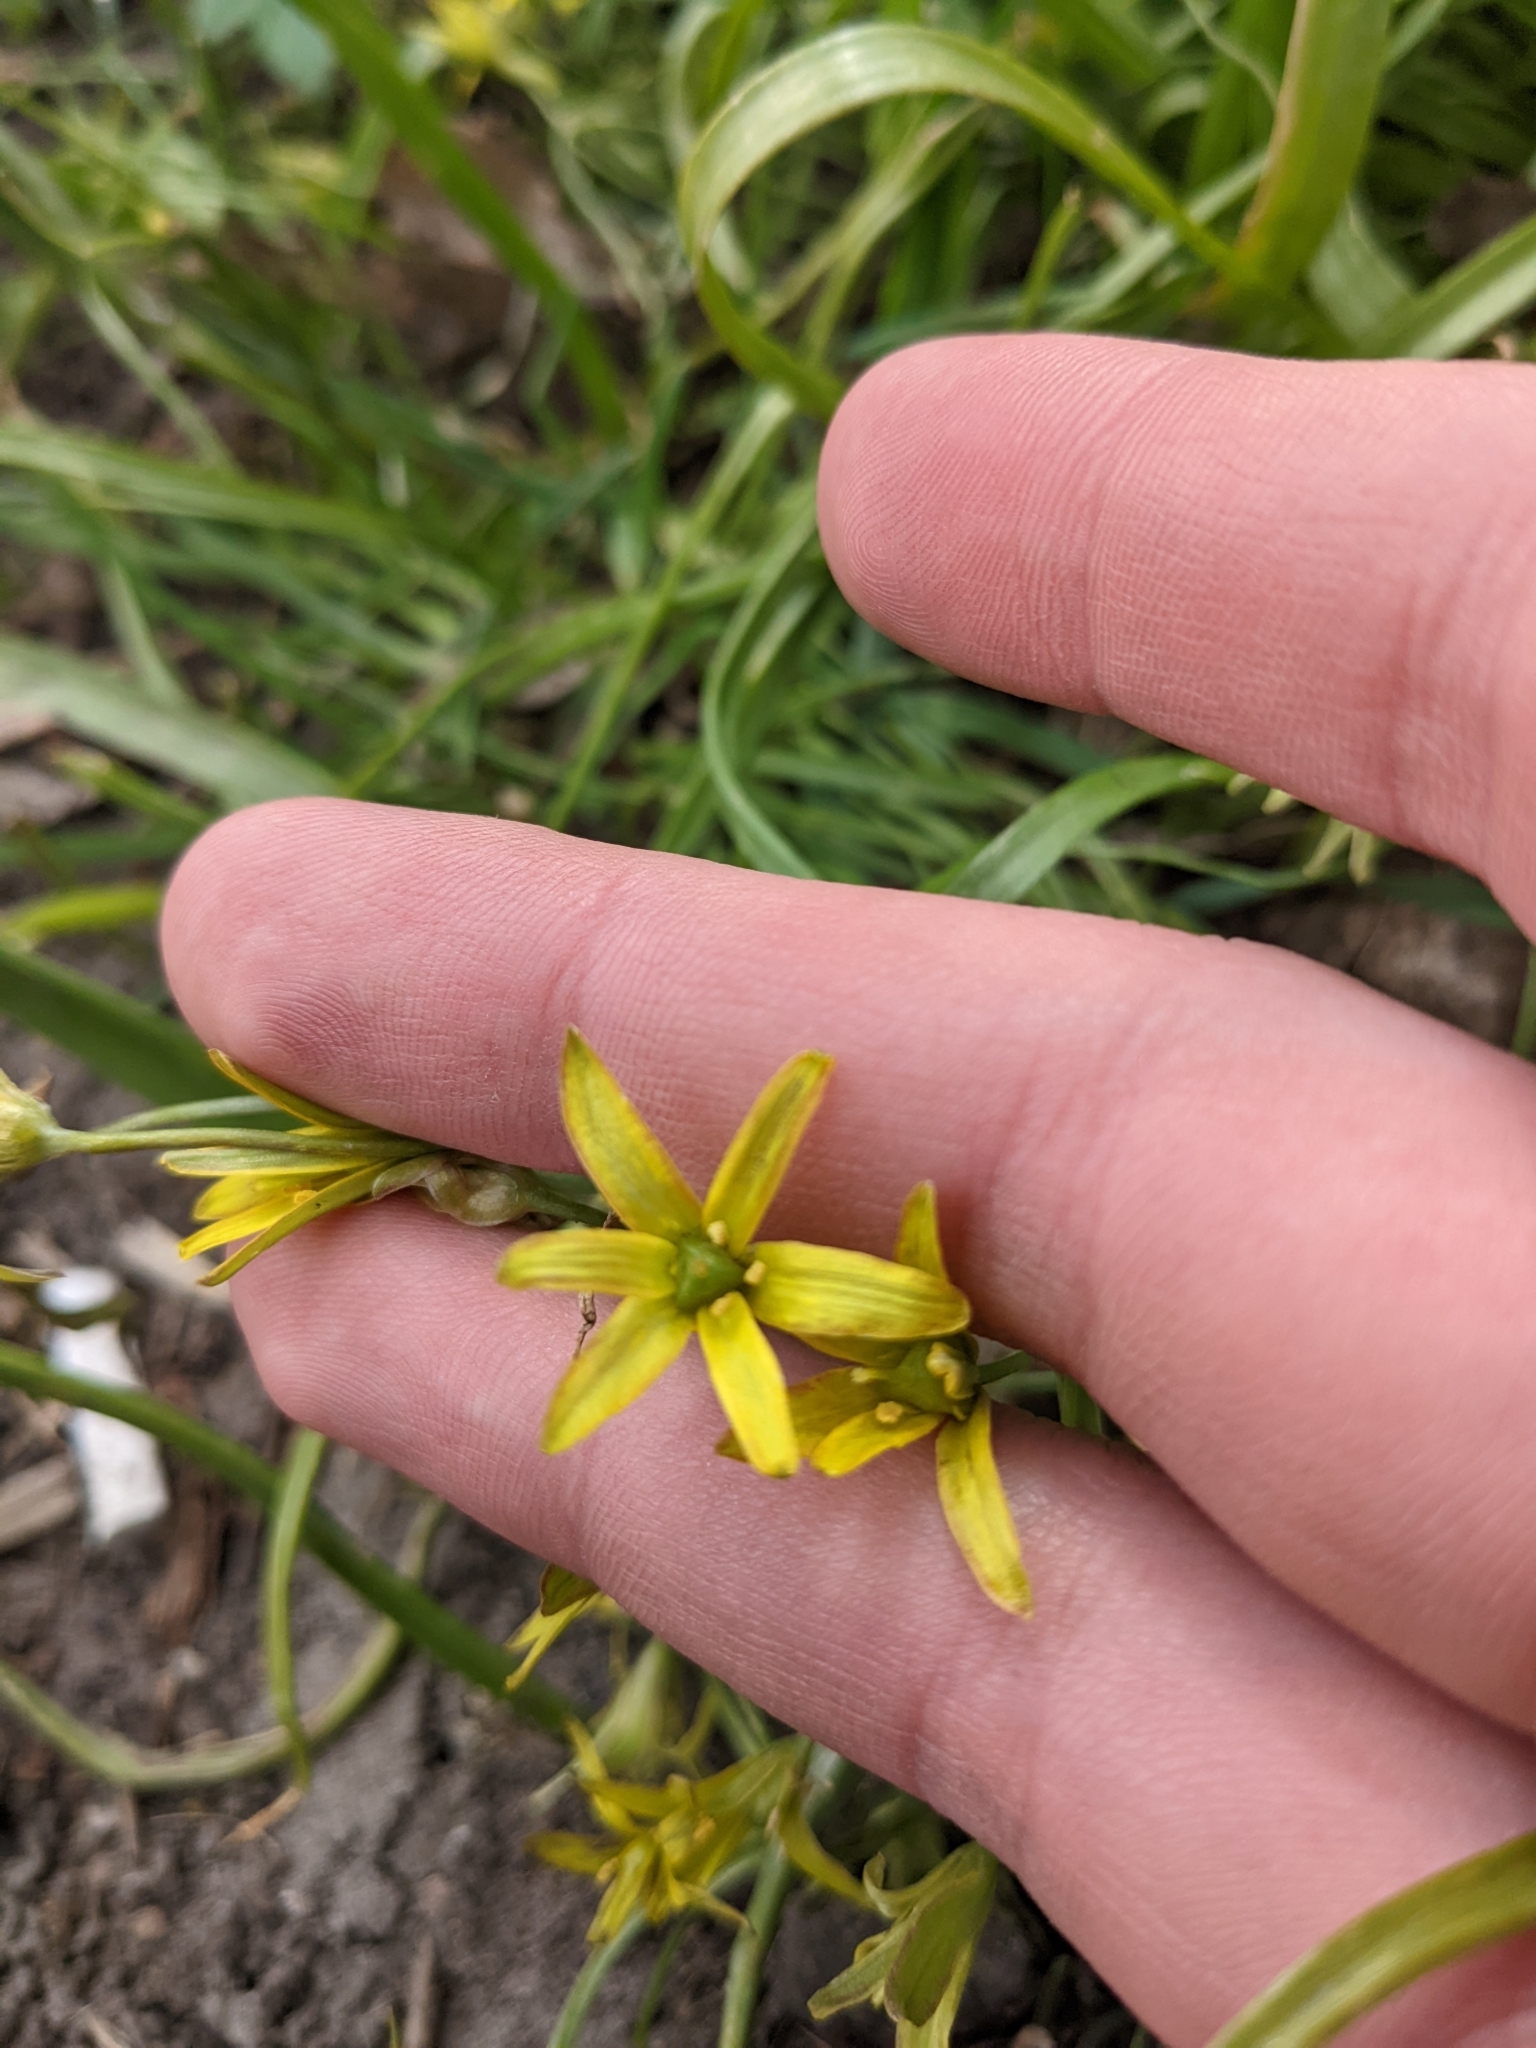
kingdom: Plantae
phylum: Tracheophyta
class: Liliopsida
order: Liliales
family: Liliaceae
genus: Gagea
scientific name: Gagea lutea
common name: Yellow star-of-bethlehem
